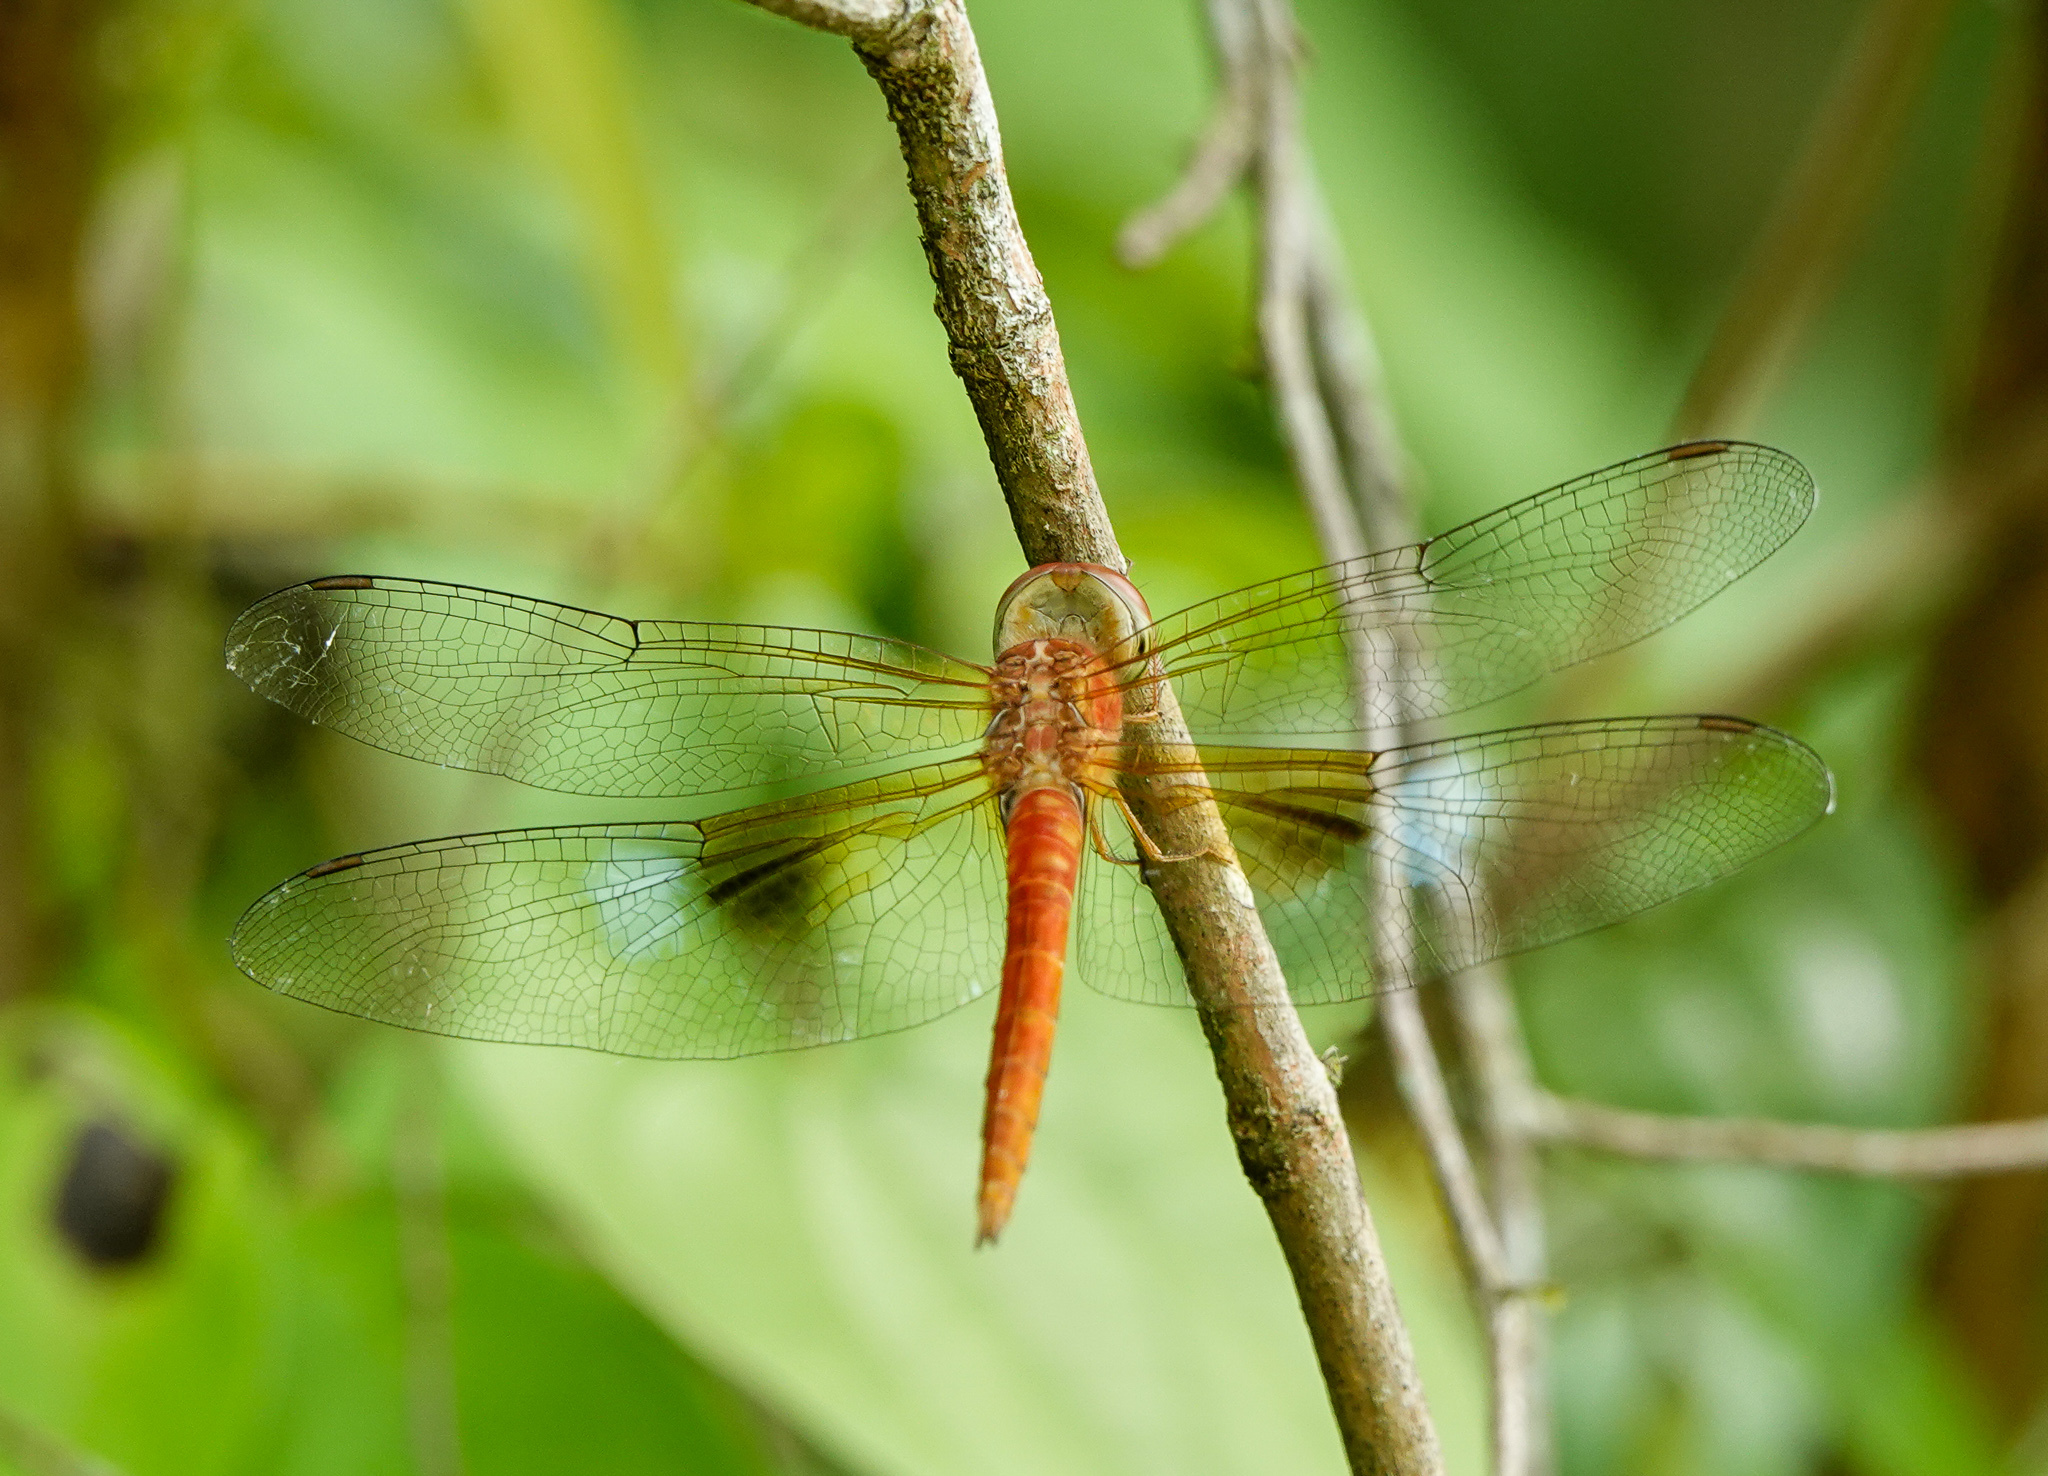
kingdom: Animalia
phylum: Arthropoda
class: Insecta
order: Odonata
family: Libellulidae
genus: Tholymis
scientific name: Tholymis tillarga
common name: Coral-tailed cloud wing
